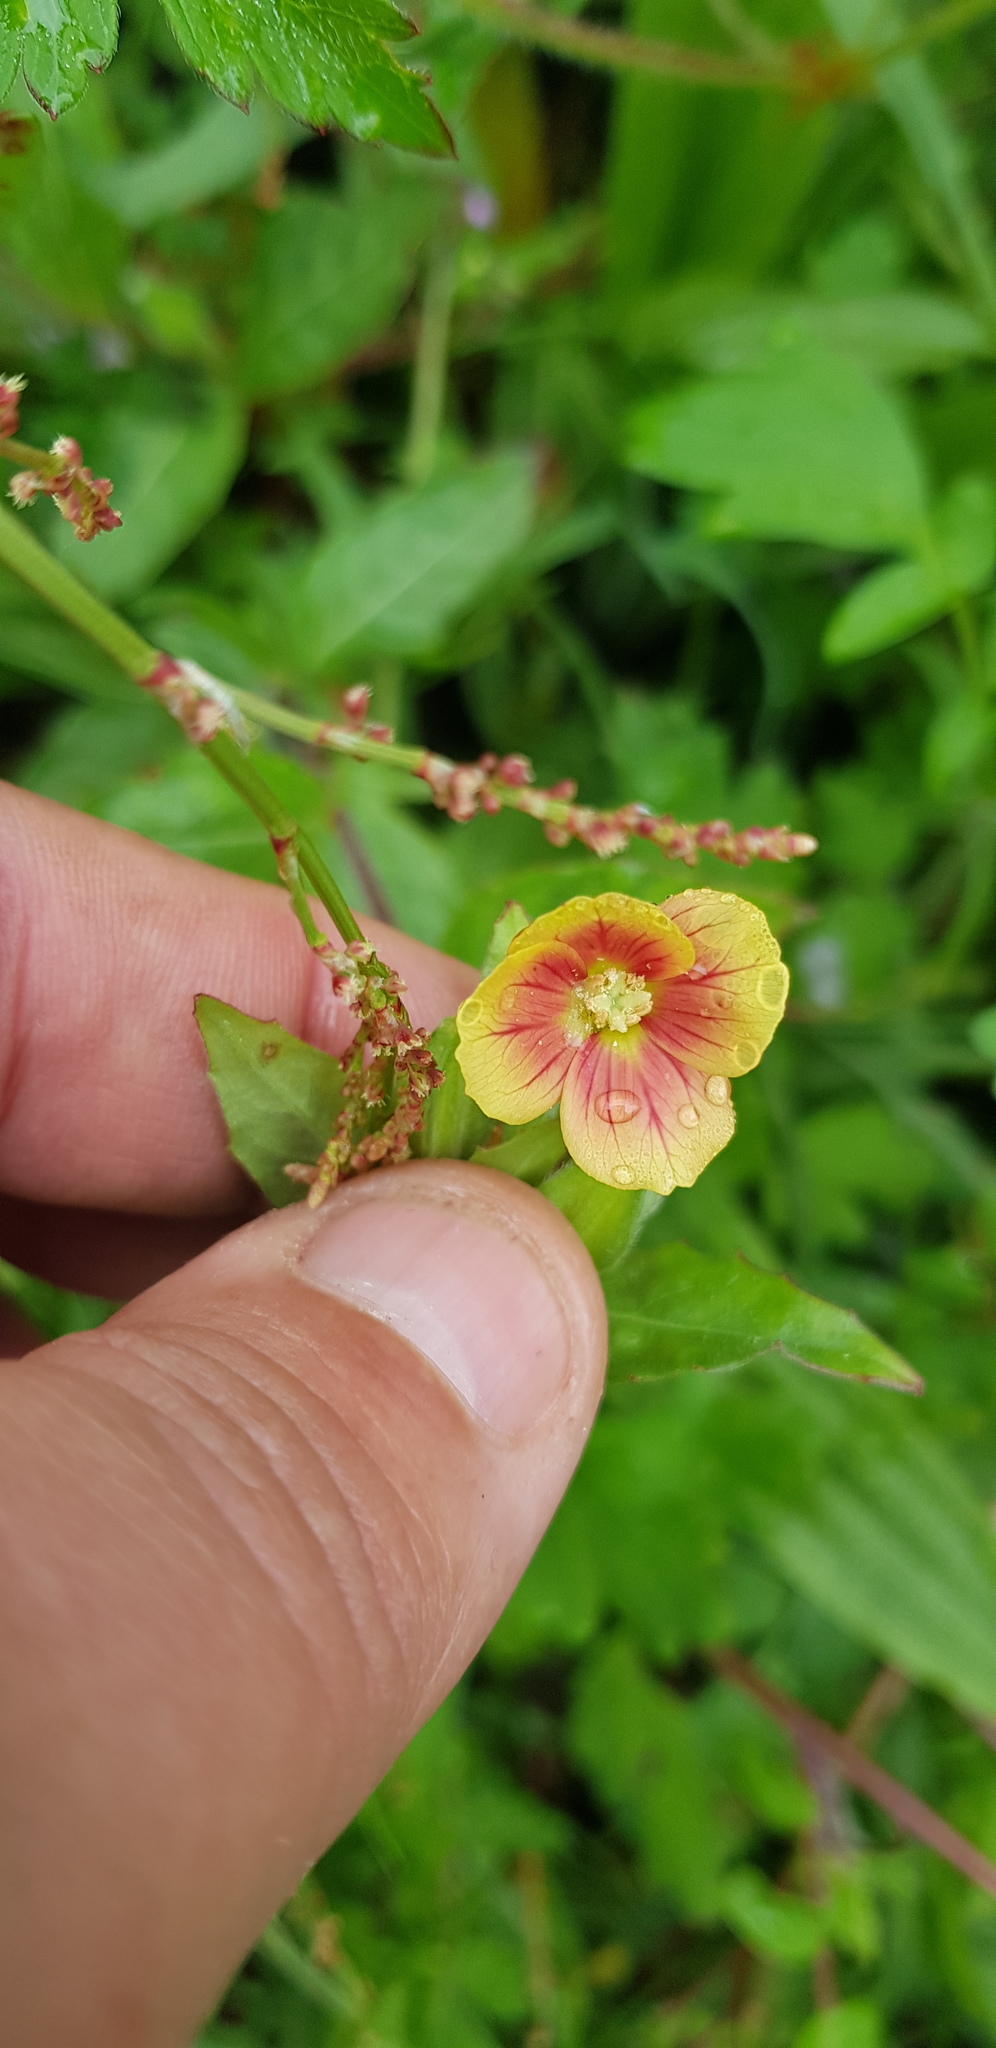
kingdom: Plantae
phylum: Tracheophyta
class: Magnoliopsida
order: Myrtales
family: Onagraceae
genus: Oenothera
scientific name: Oenothera epilobiifolia
